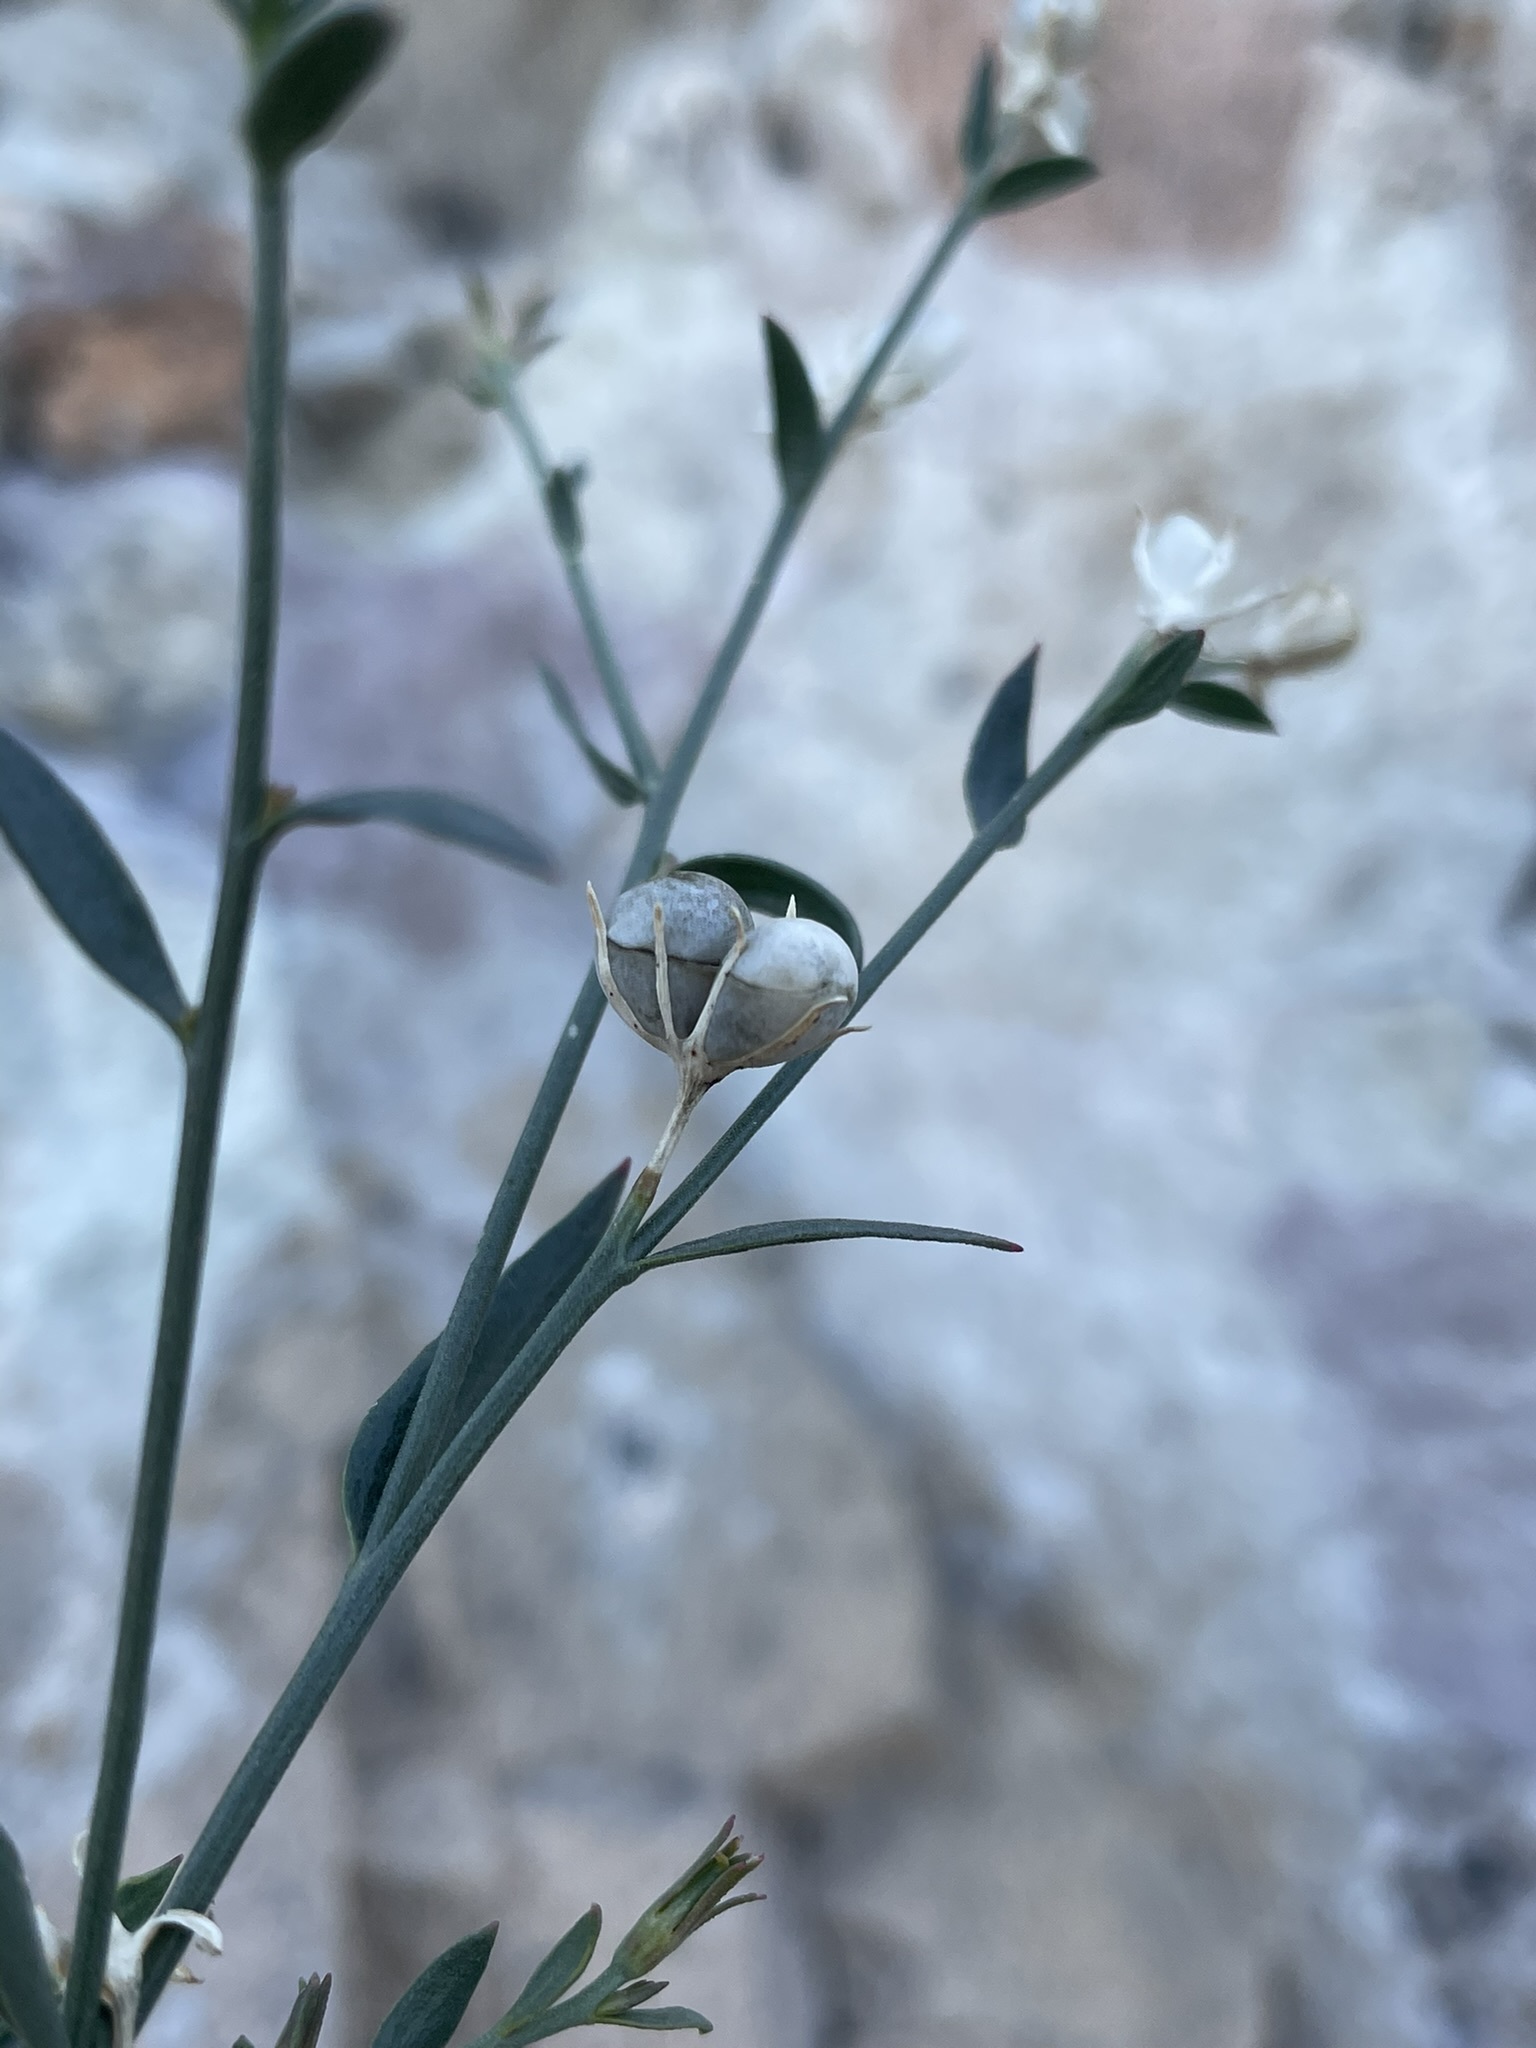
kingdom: Plantae
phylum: Tracheophyta
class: Magnoliopsida
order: Lamiales
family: Oleaceae
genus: Menodora
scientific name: Menodora scabra
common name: Rough menodora
